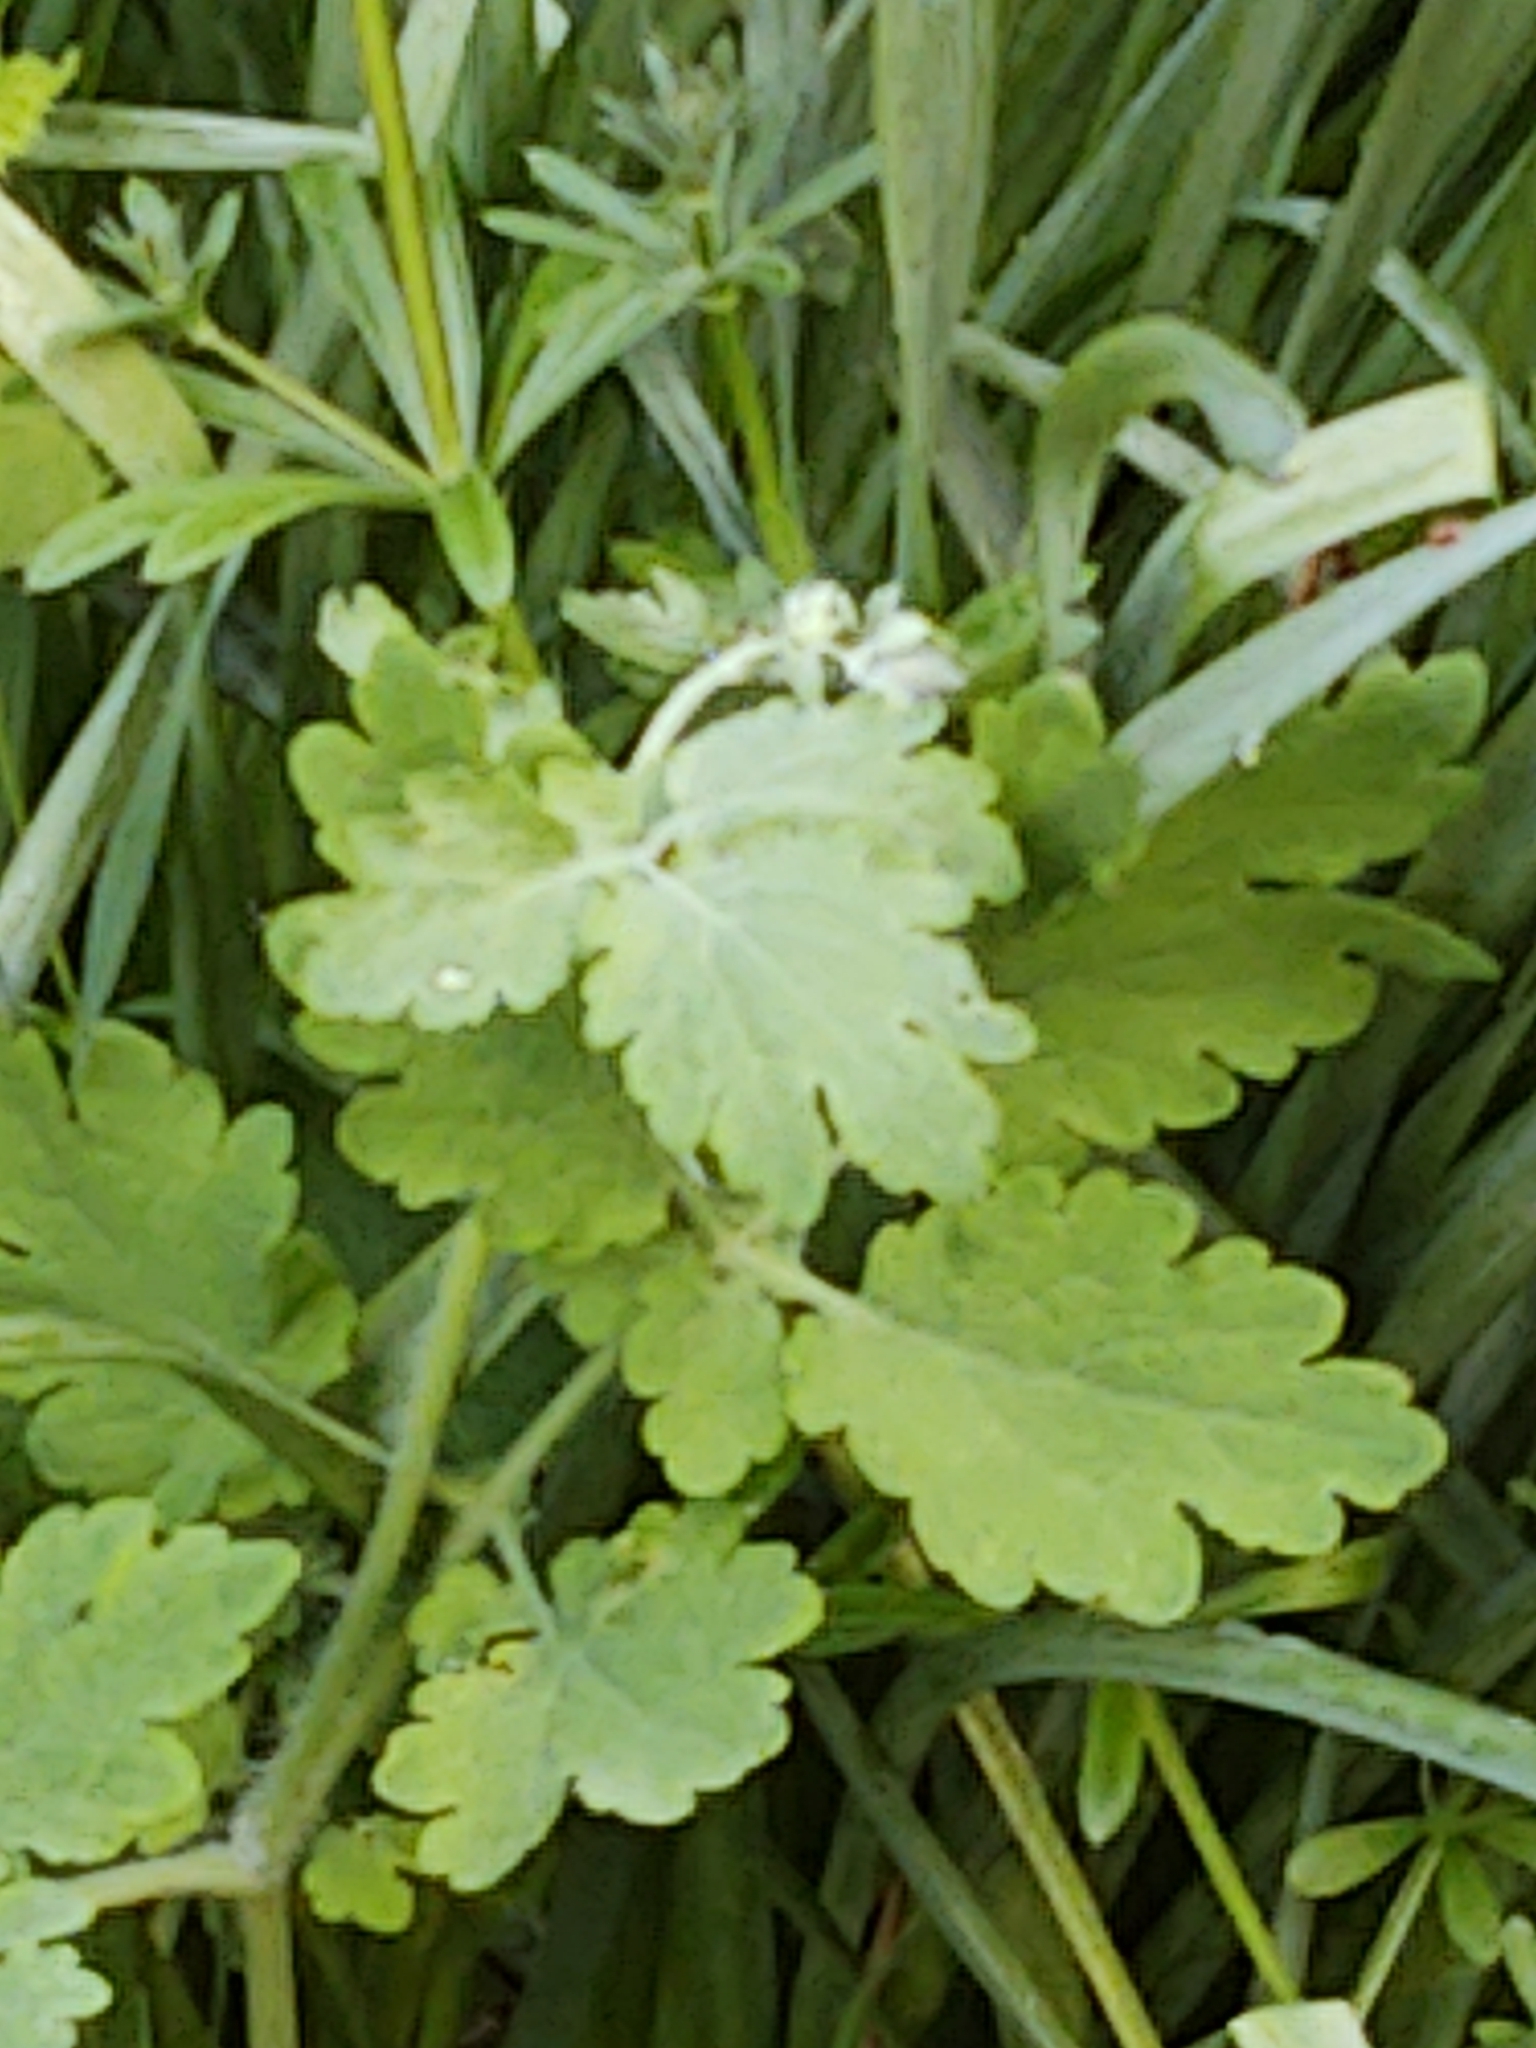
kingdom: Plantae
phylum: Tracheophyta
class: Magnoliopsida
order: Ranunculales
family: Papaveraceae
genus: Chelidonium
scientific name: Chelidonium majus
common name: Greater celandine
